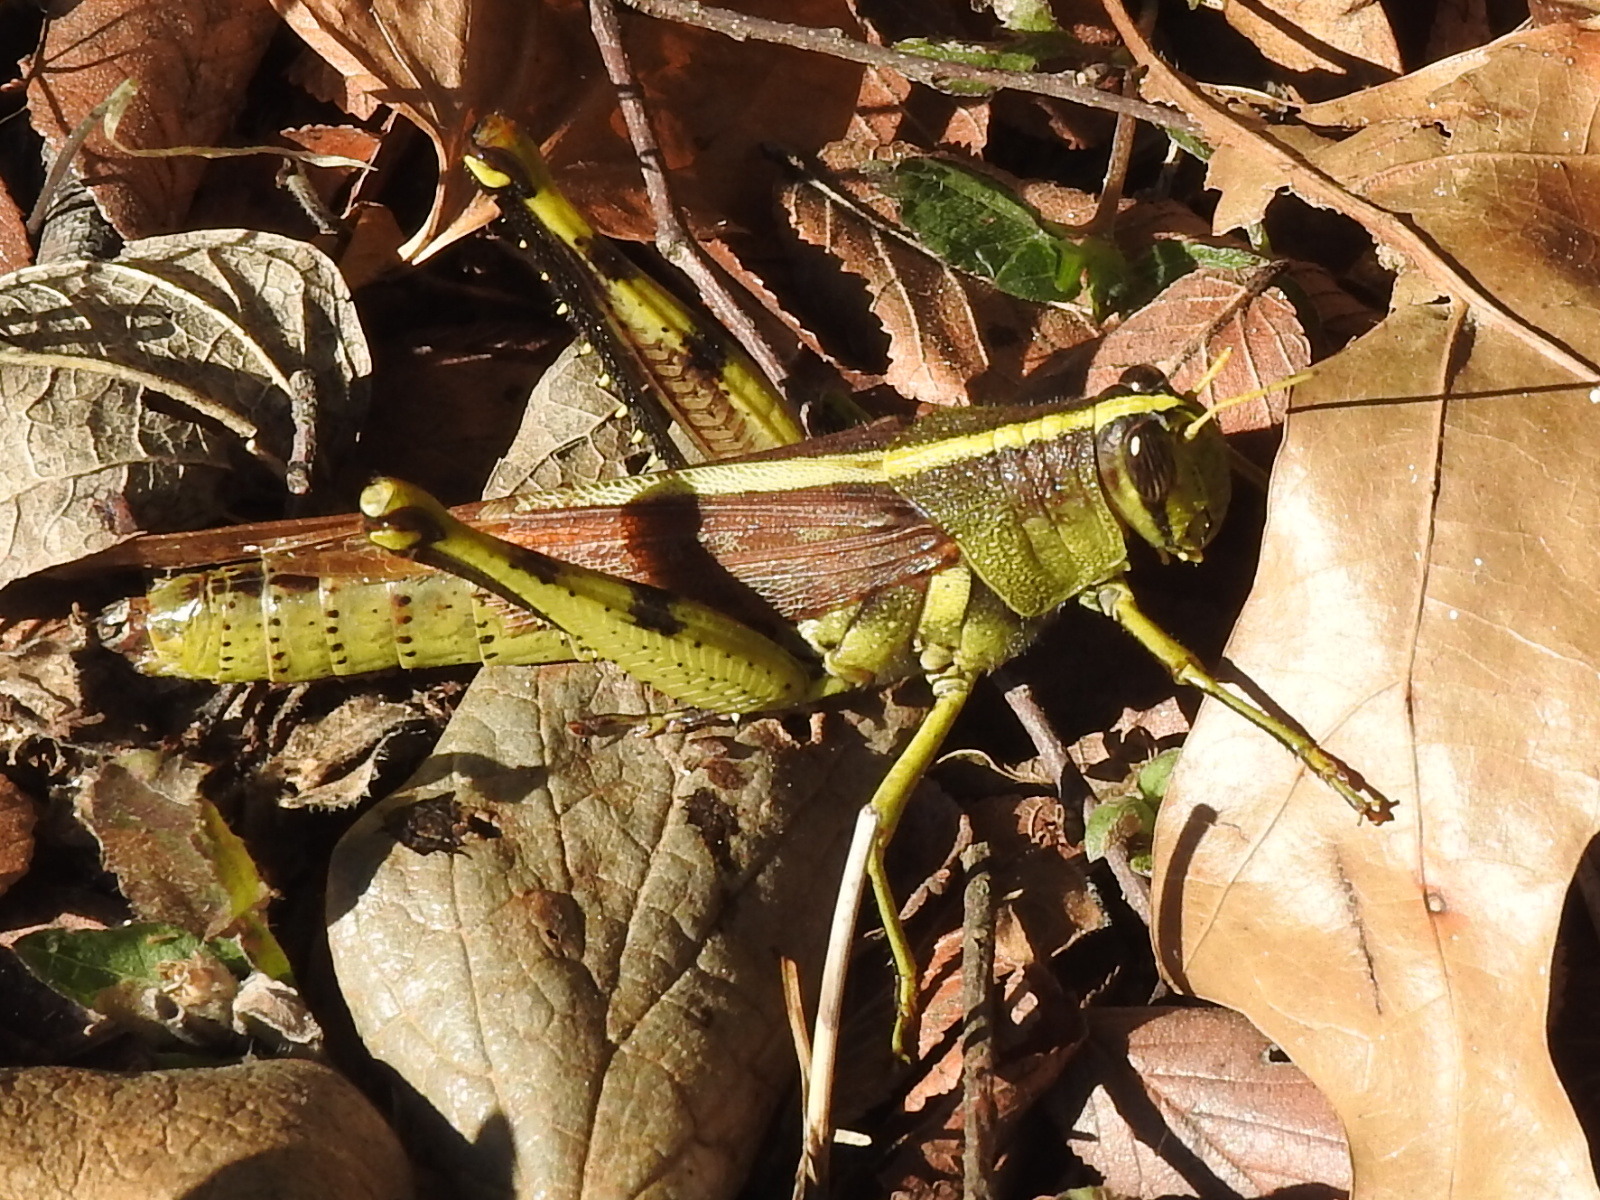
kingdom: Animalia
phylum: Arthropoda
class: Insecta
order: Orthoptera
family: Acrididae
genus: Schistocerca
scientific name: Schistocerca obscura
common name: Obscure bird grasshopper
